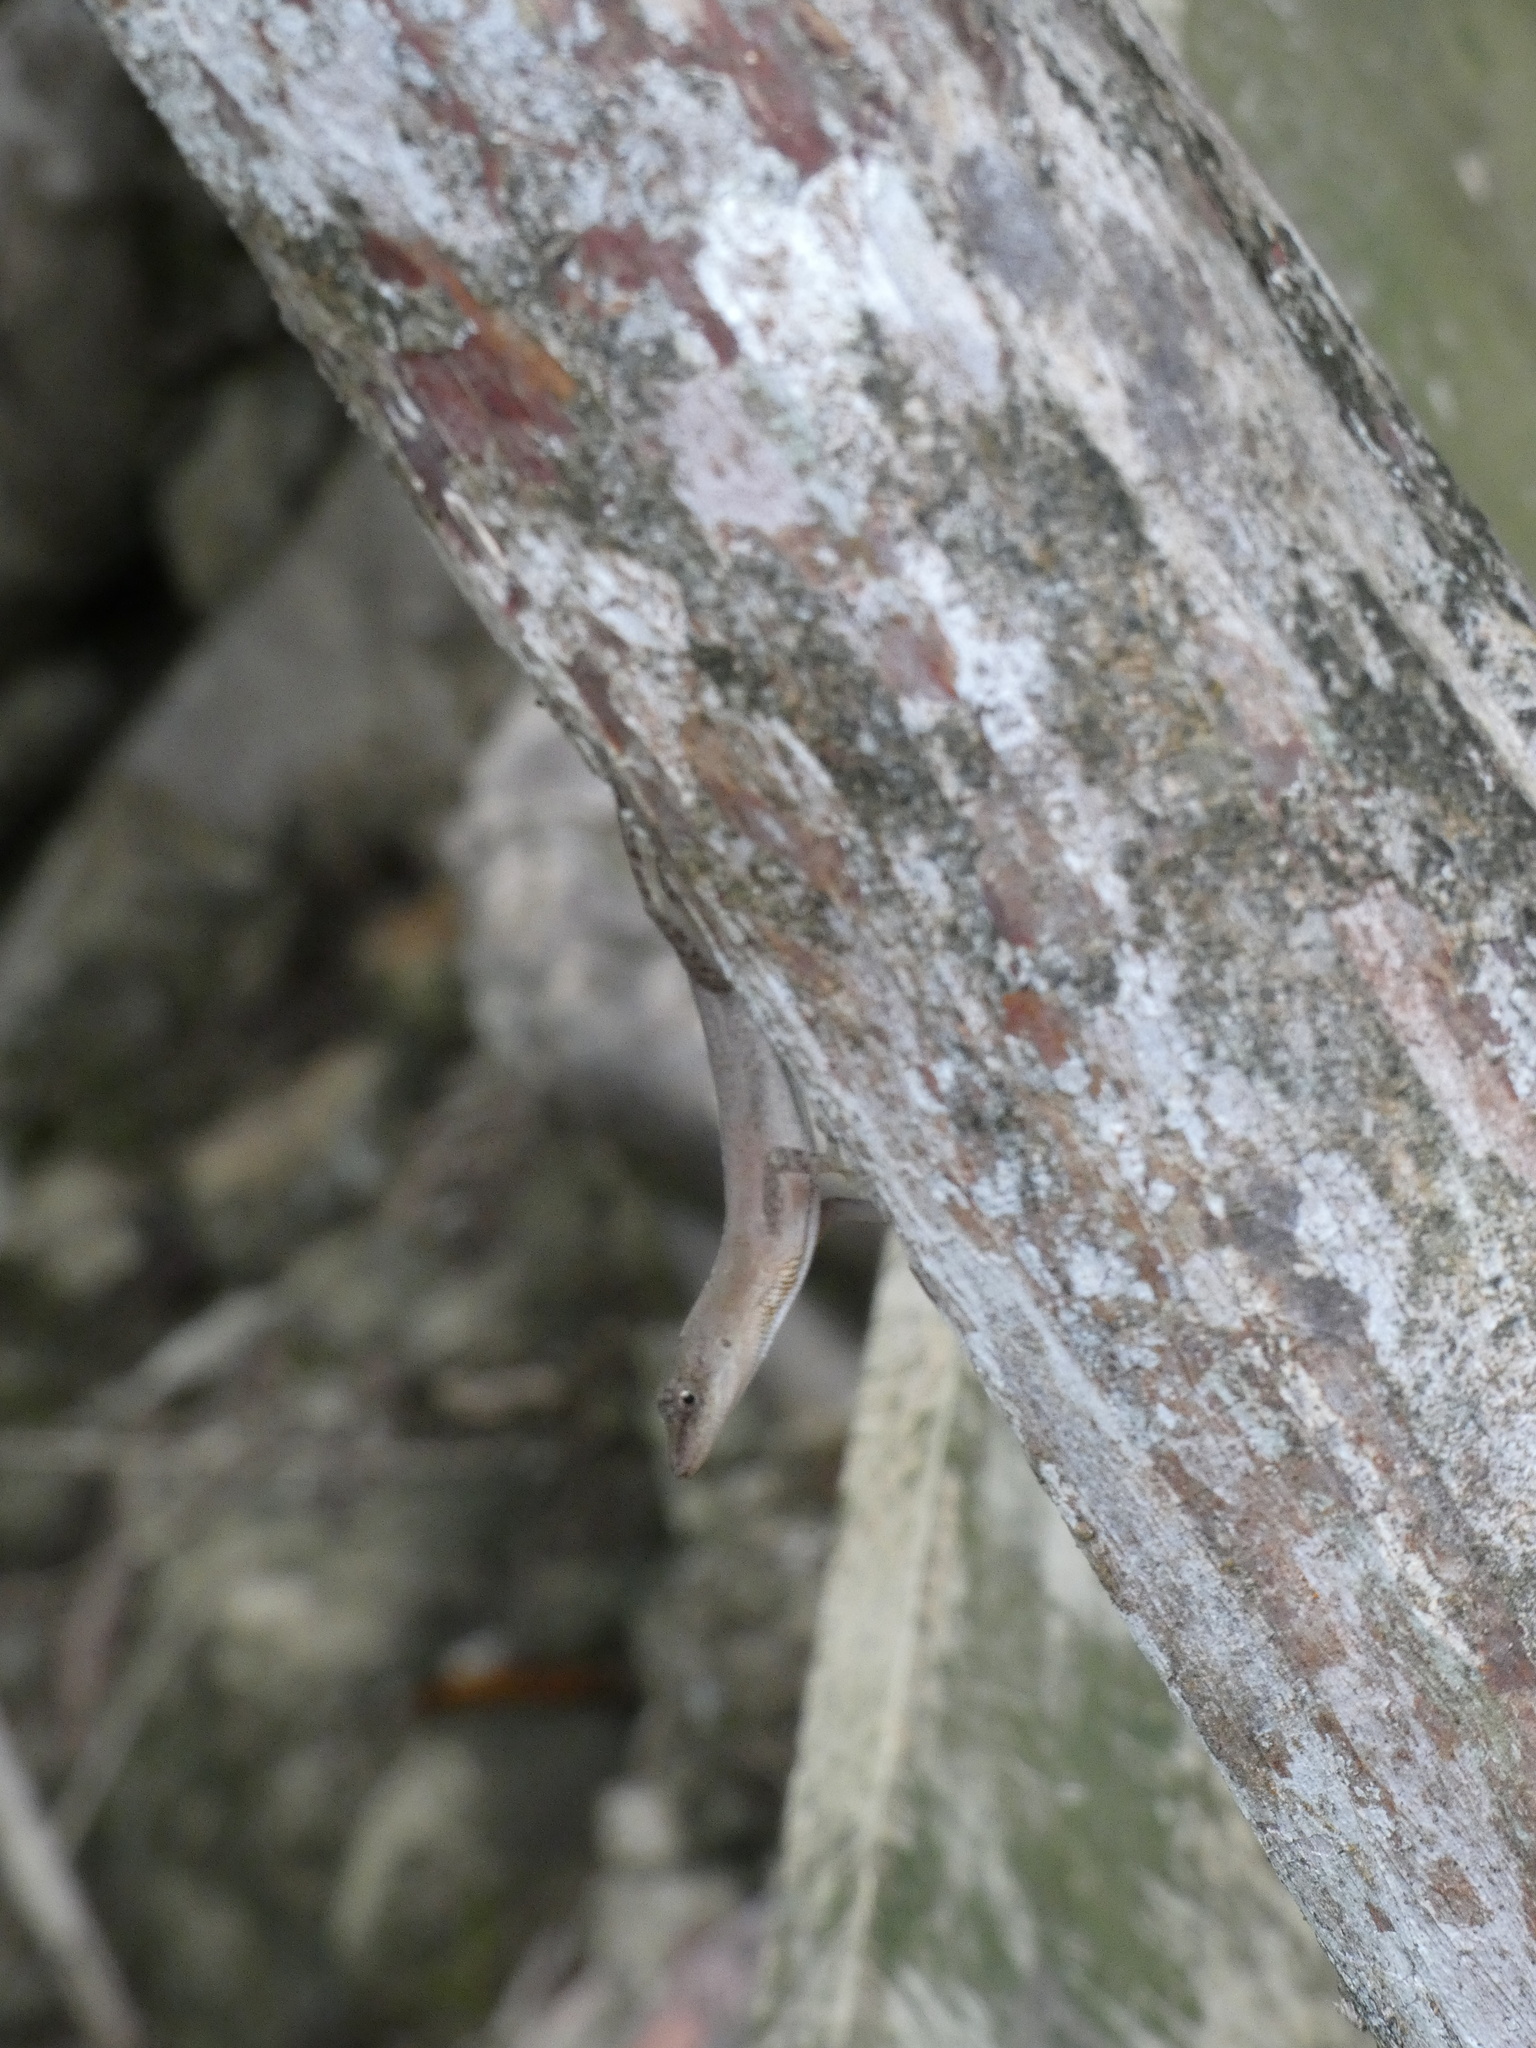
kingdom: Animalia
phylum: Chordata
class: Squamata
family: Dactyloidae
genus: Anolis
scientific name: Anolis cupreus
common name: Copper anole
